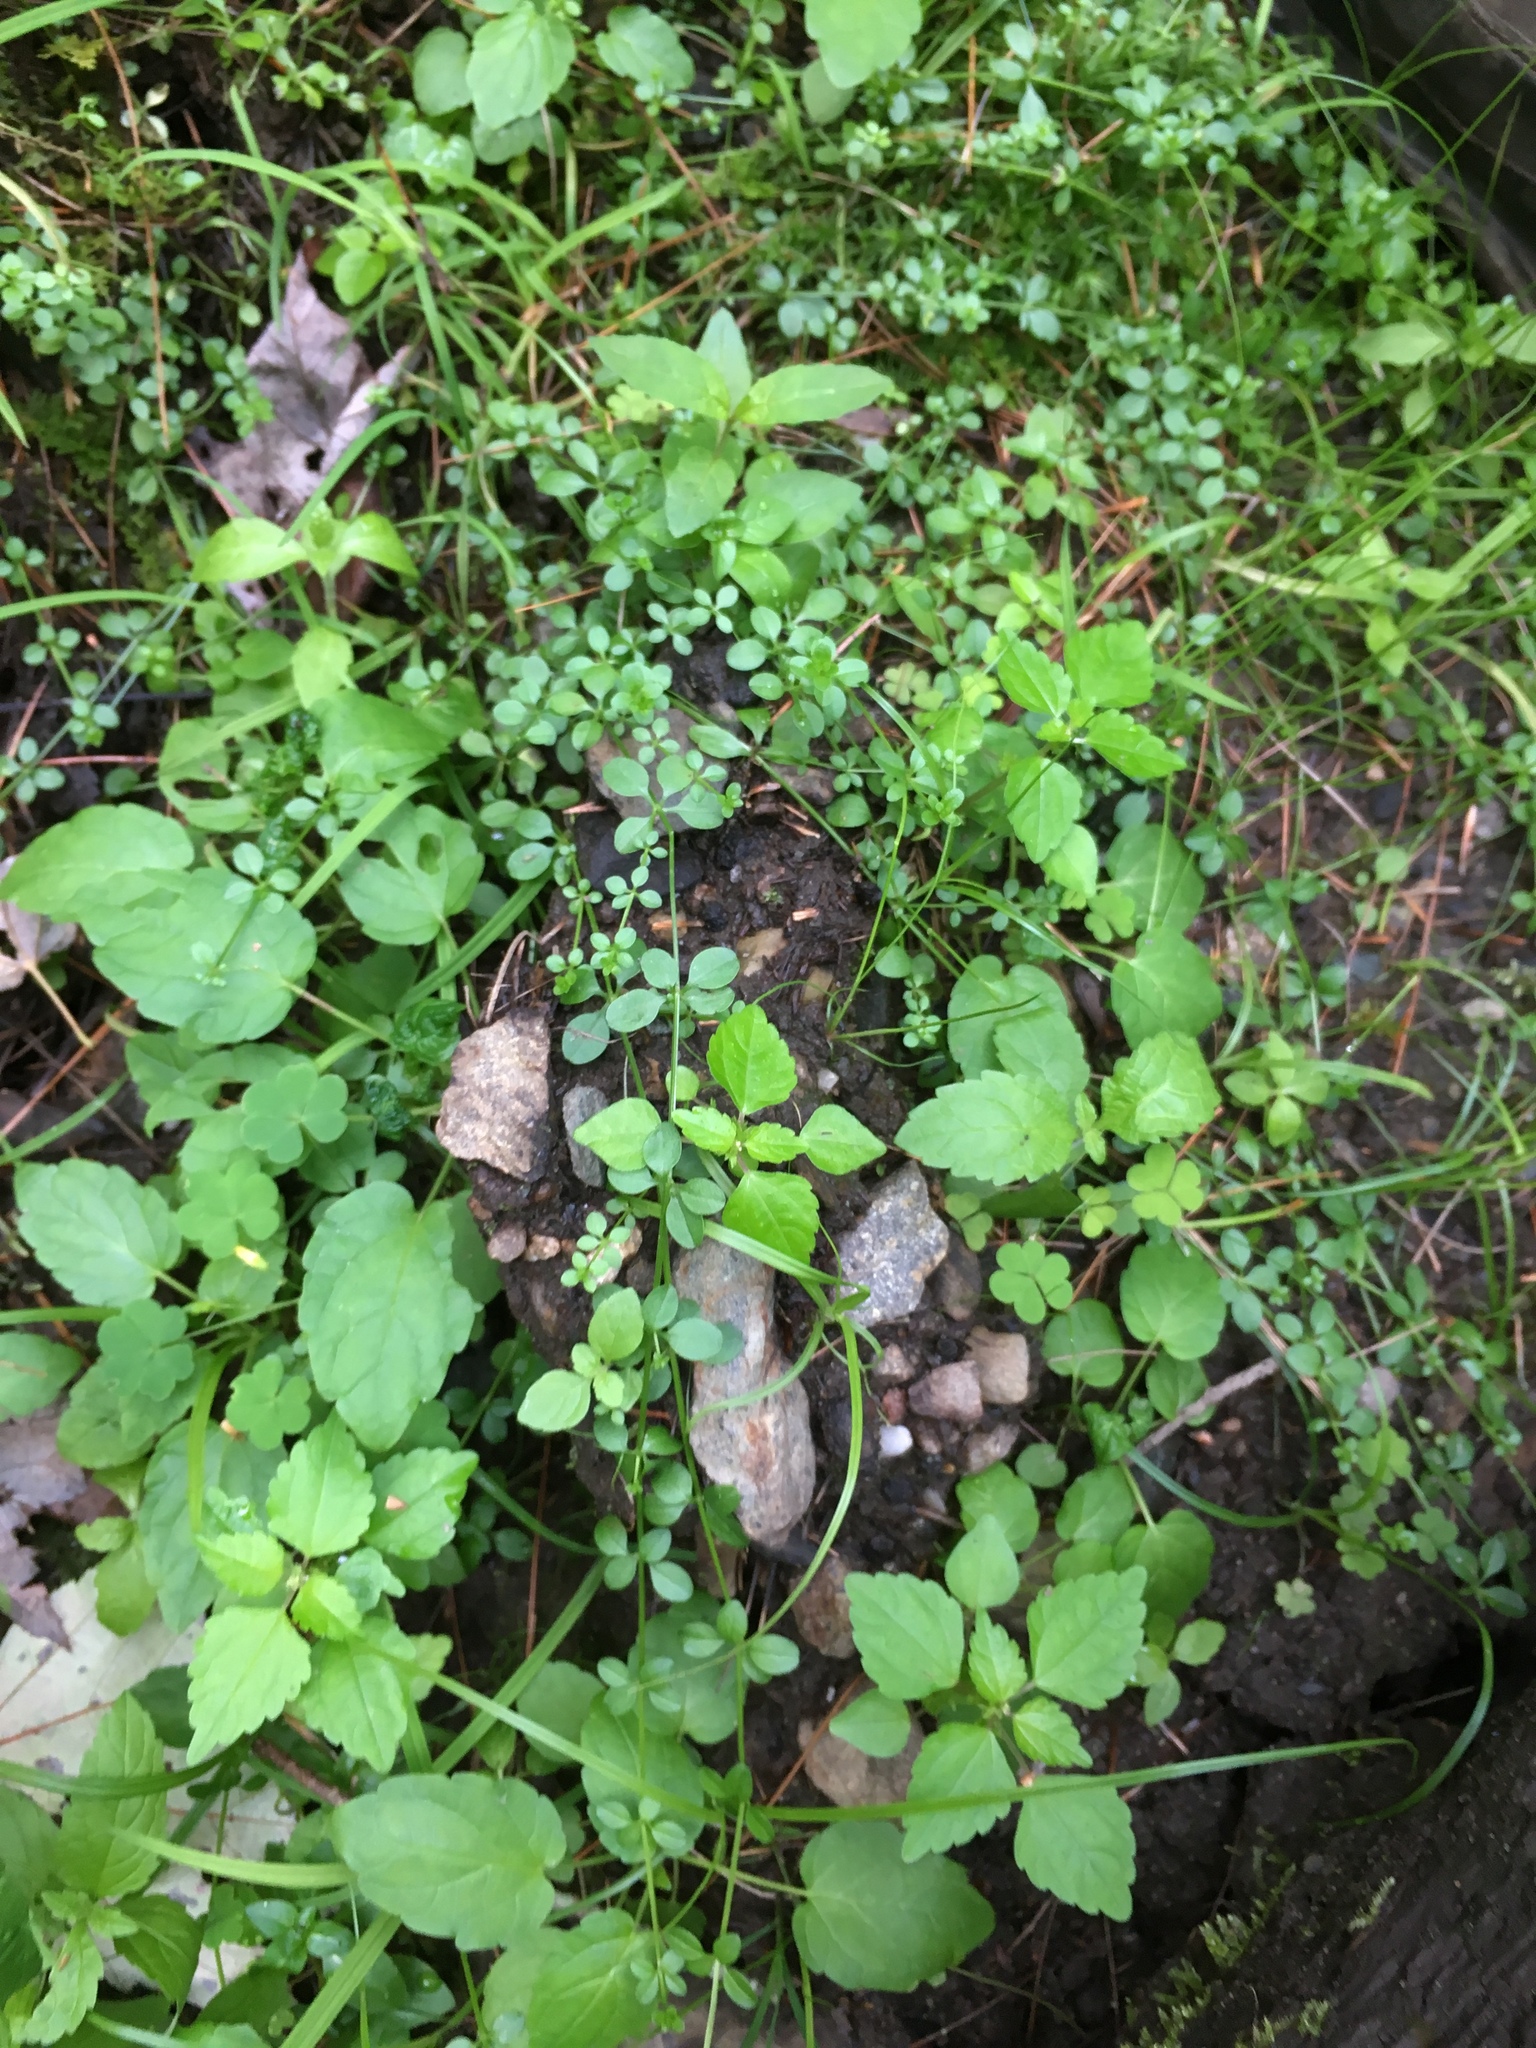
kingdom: Plantae
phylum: Tracheophyta
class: Magnoliopsida
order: Gentianales
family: Rubiaceae
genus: Galium
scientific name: Galium palustre
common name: Common marsh-bedstraw
